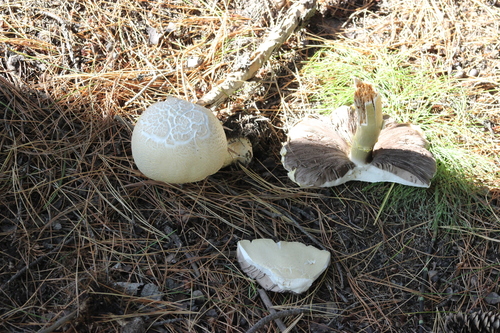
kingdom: Fungi
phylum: Basidiomycota
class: Agaricomycetes
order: Agaricales
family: Agaricaceae
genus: Agaricus
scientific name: Agaricus sylvicola
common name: Wood mushroom
